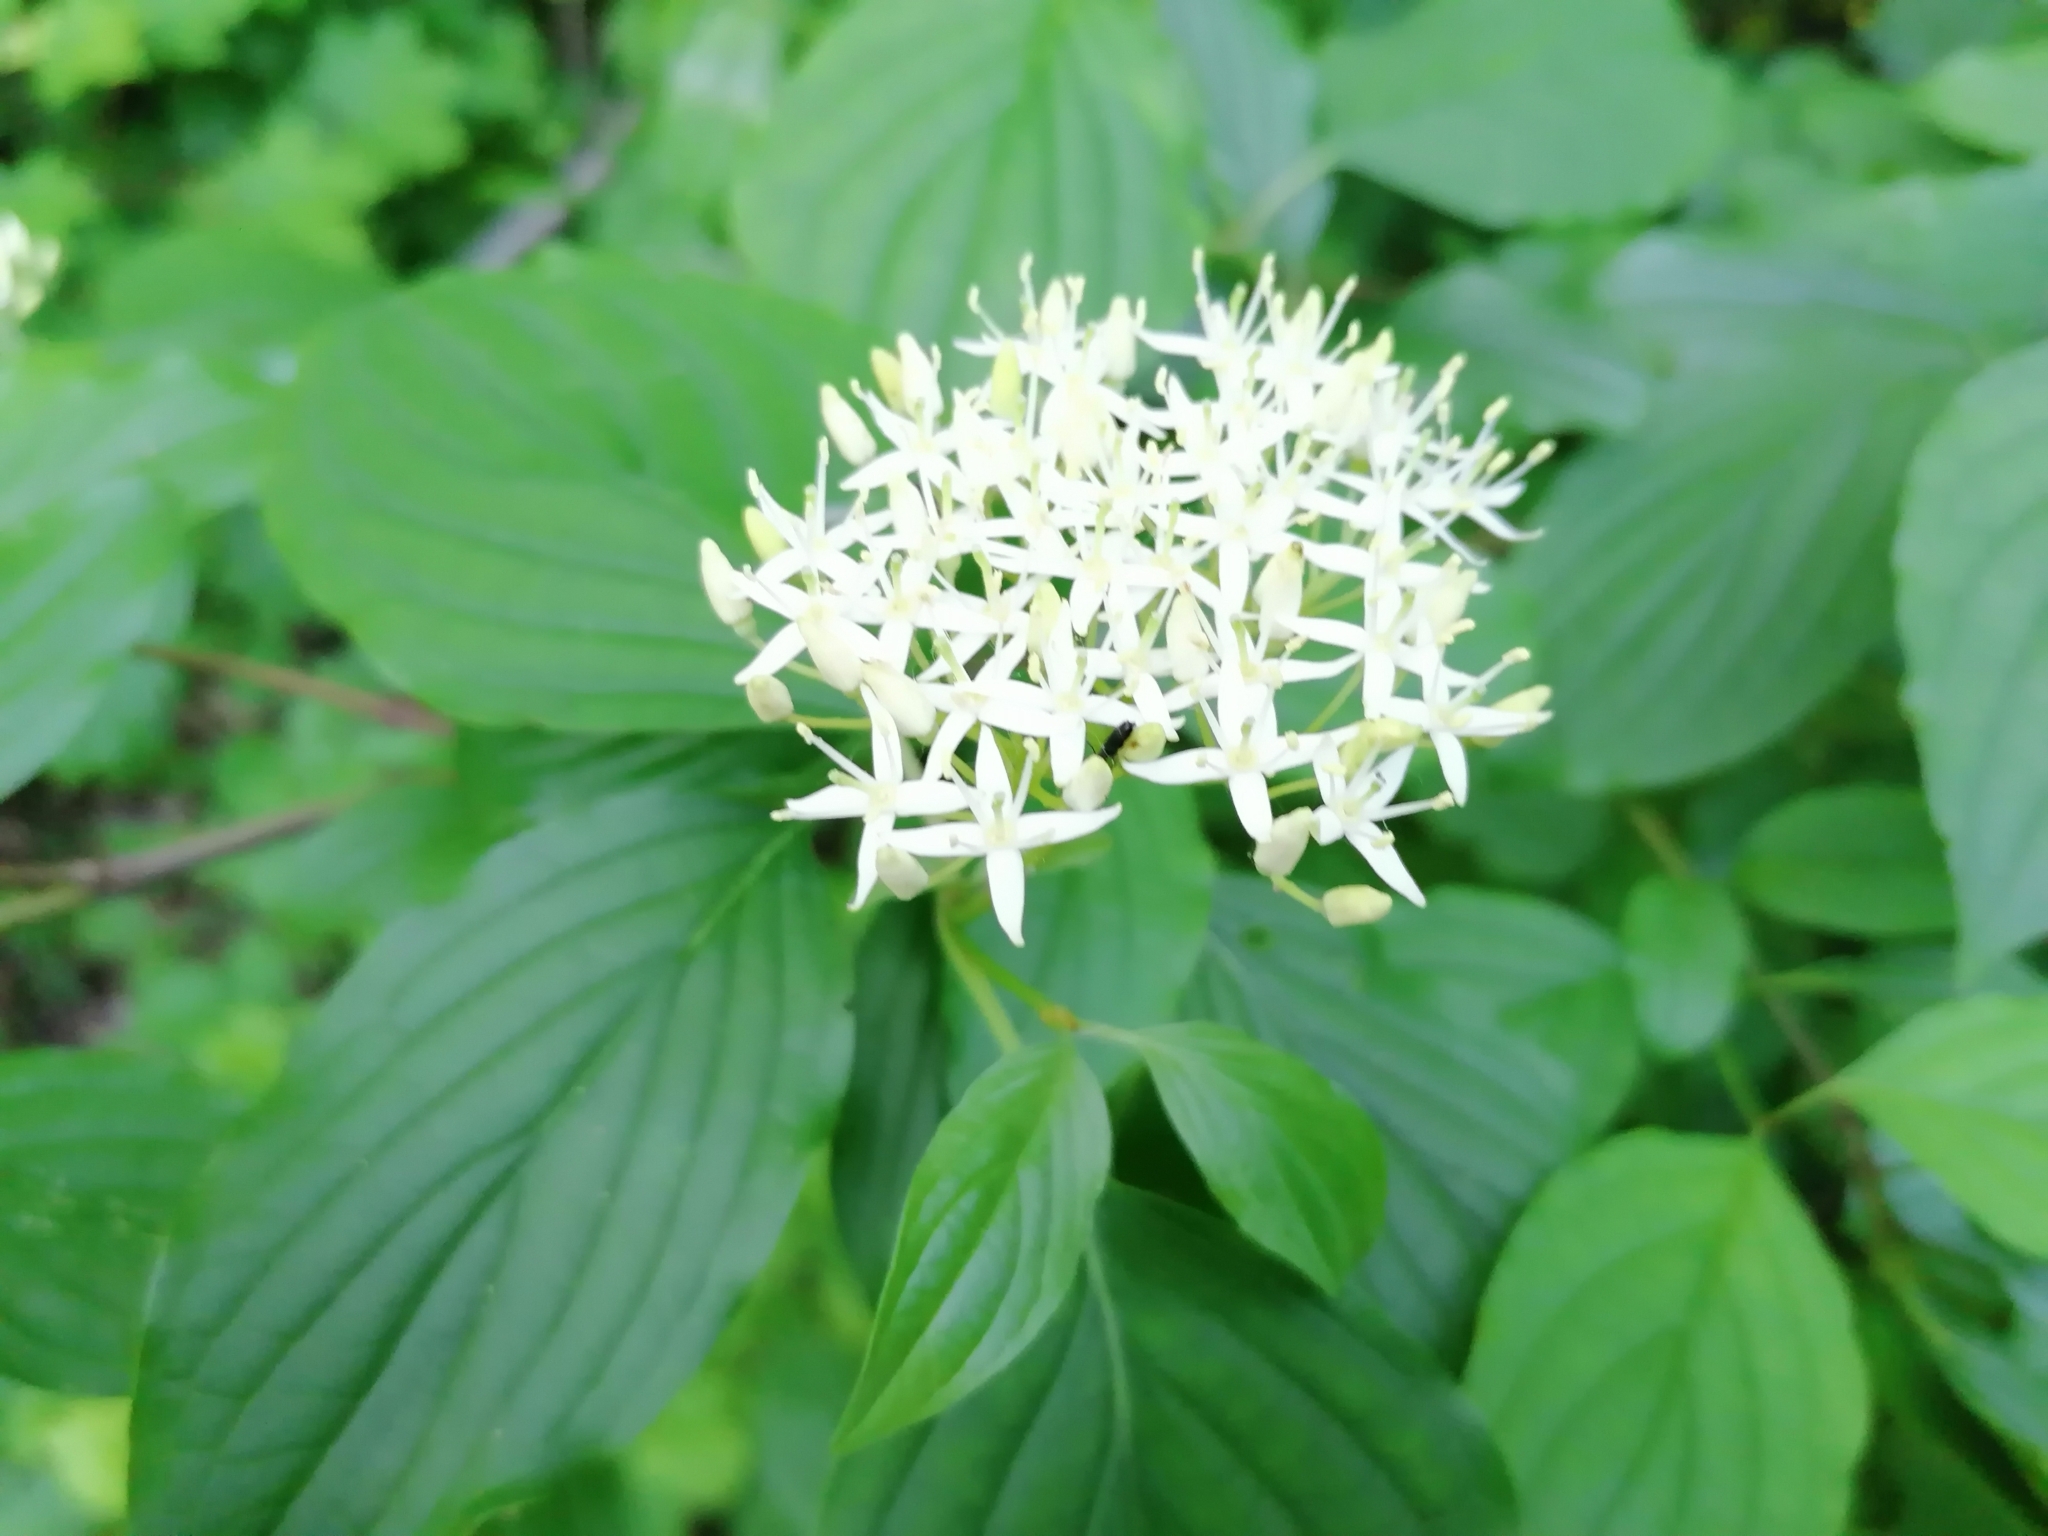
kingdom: Plantae
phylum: Tracheophyta
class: Magnoliopsida
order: Cornales
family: Cornaceae
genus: Cornus
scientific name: Cornus sanguinea
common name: Dogwood
